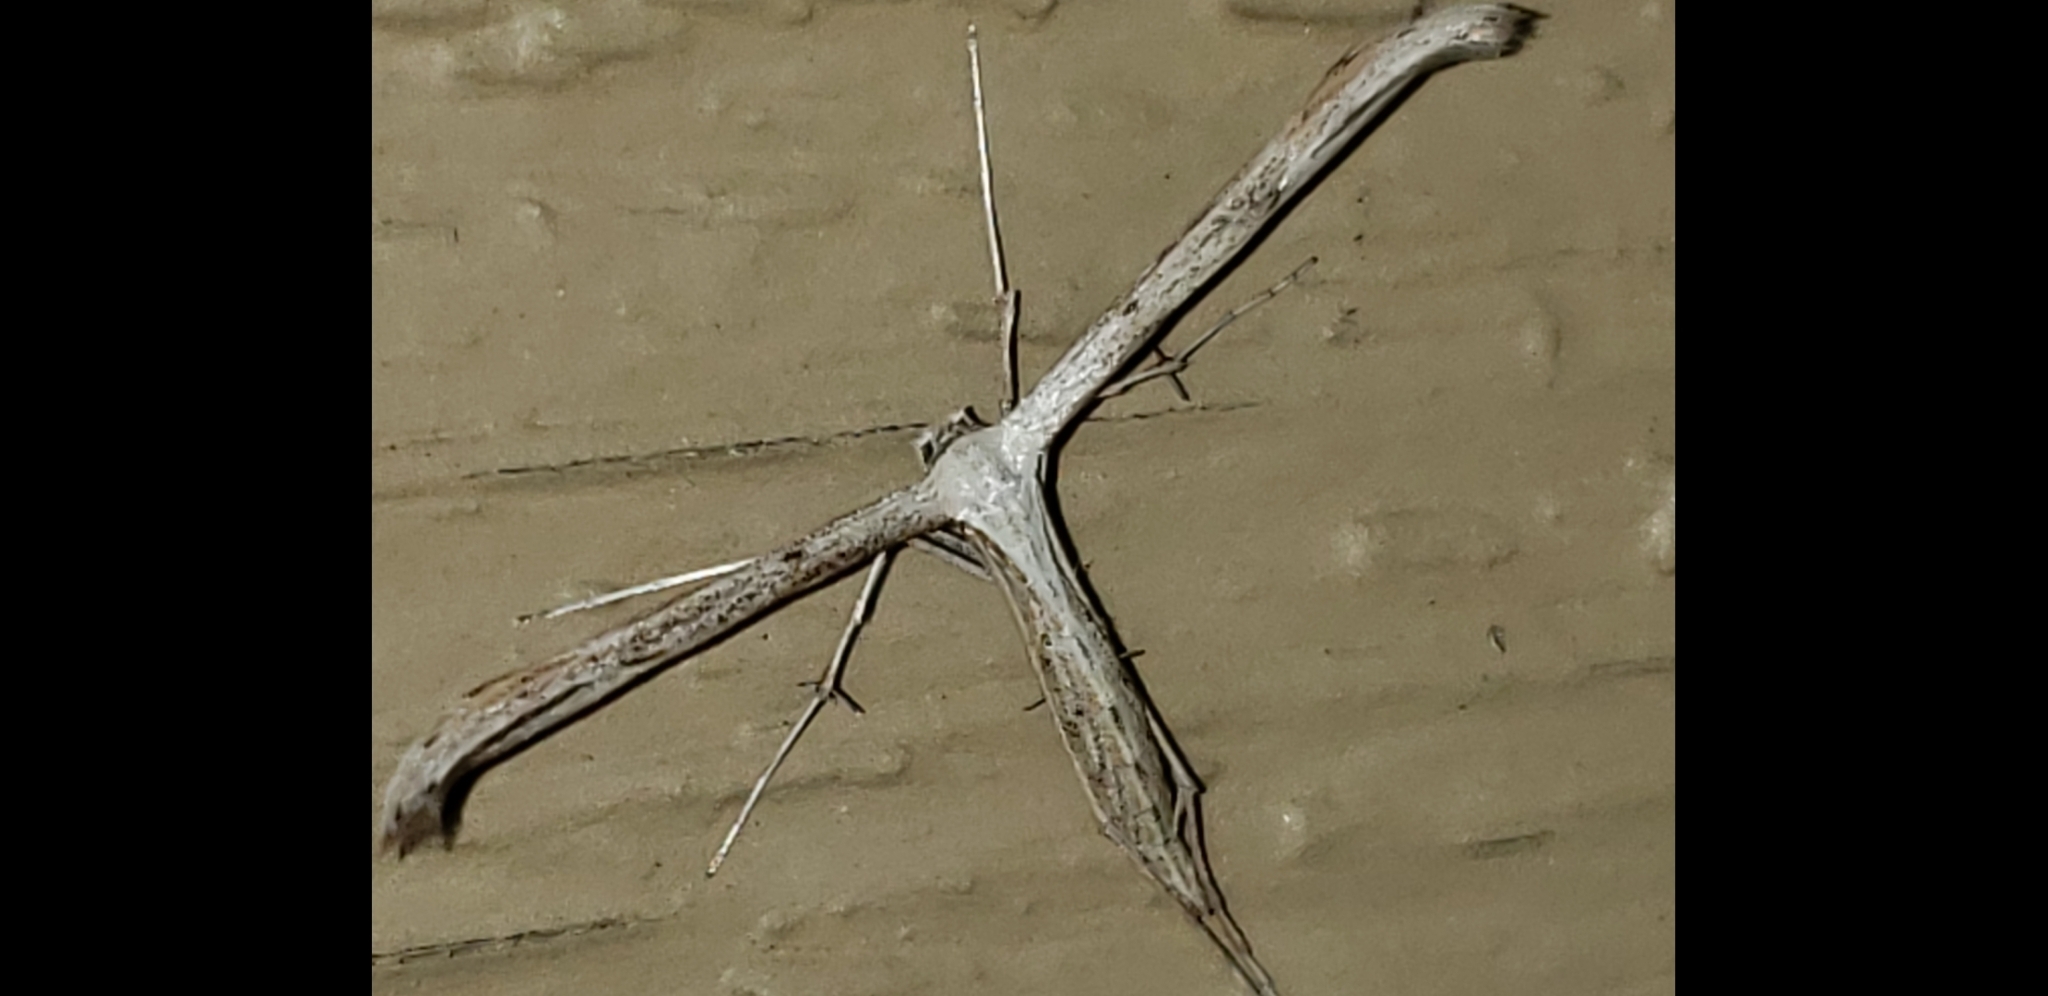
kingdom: Animalia
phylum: Arthropoda
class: Insecta
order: Lepidoptera
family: Pterophoridae
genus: Emmelina
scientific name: Emmelina monodactyla
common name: Common plume
